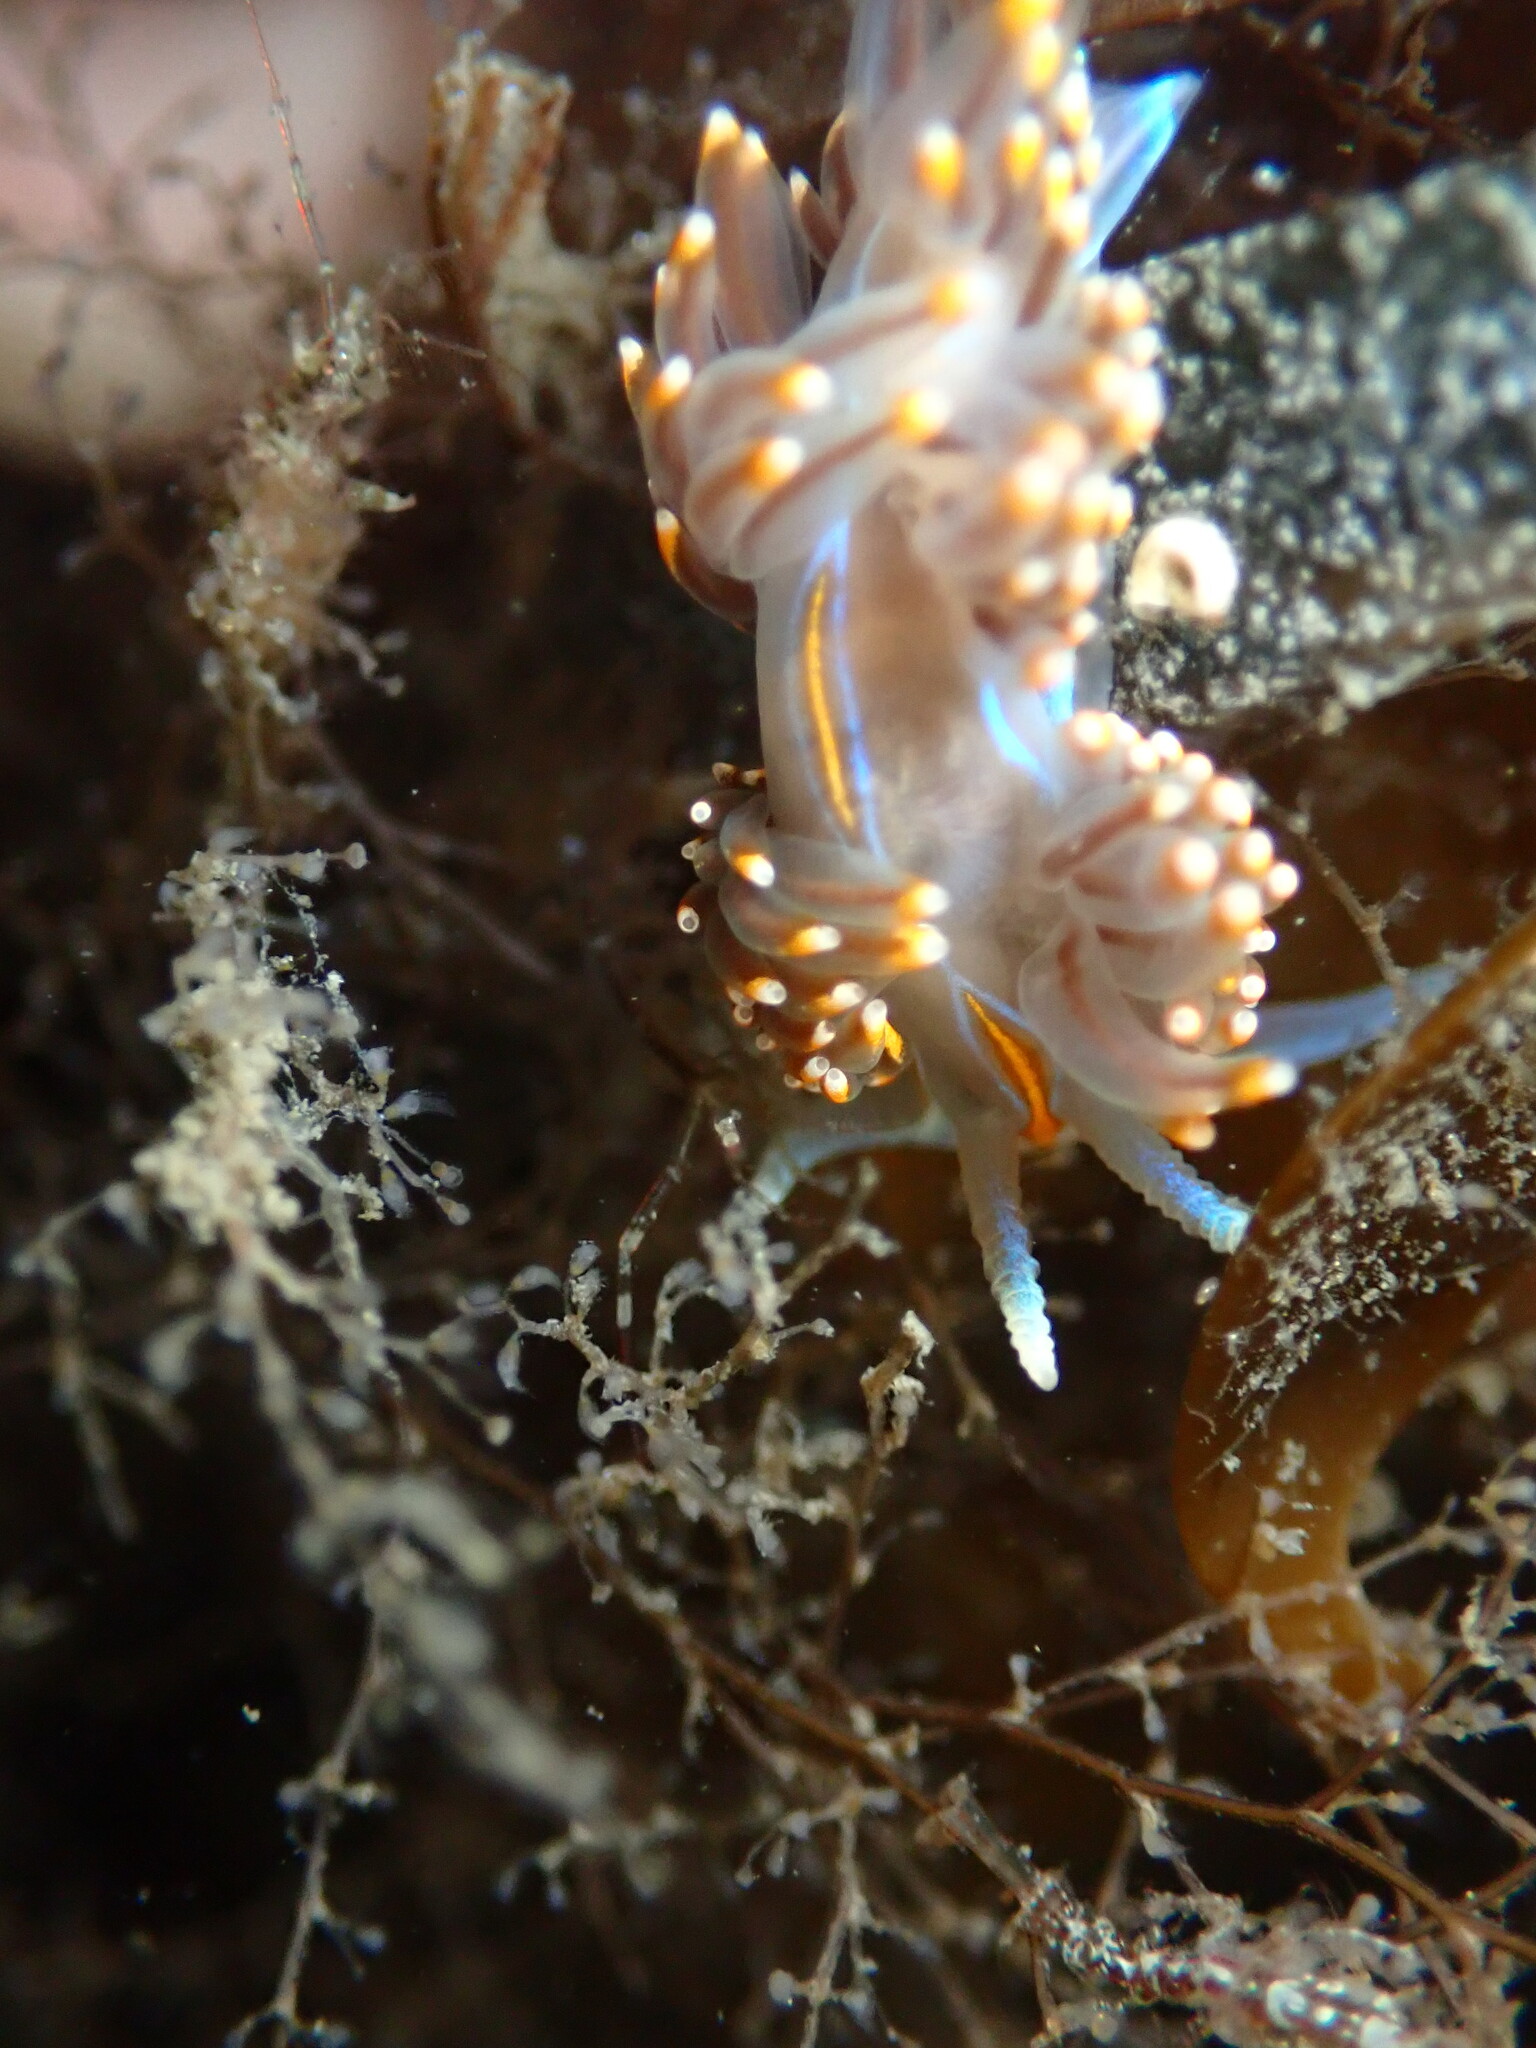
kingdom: Animalia
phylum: Mollusca
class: Gastropoda
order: Nudibranchia
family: Myrrhinidae
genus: Hermissenda
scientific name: Hermissenda opalescens
